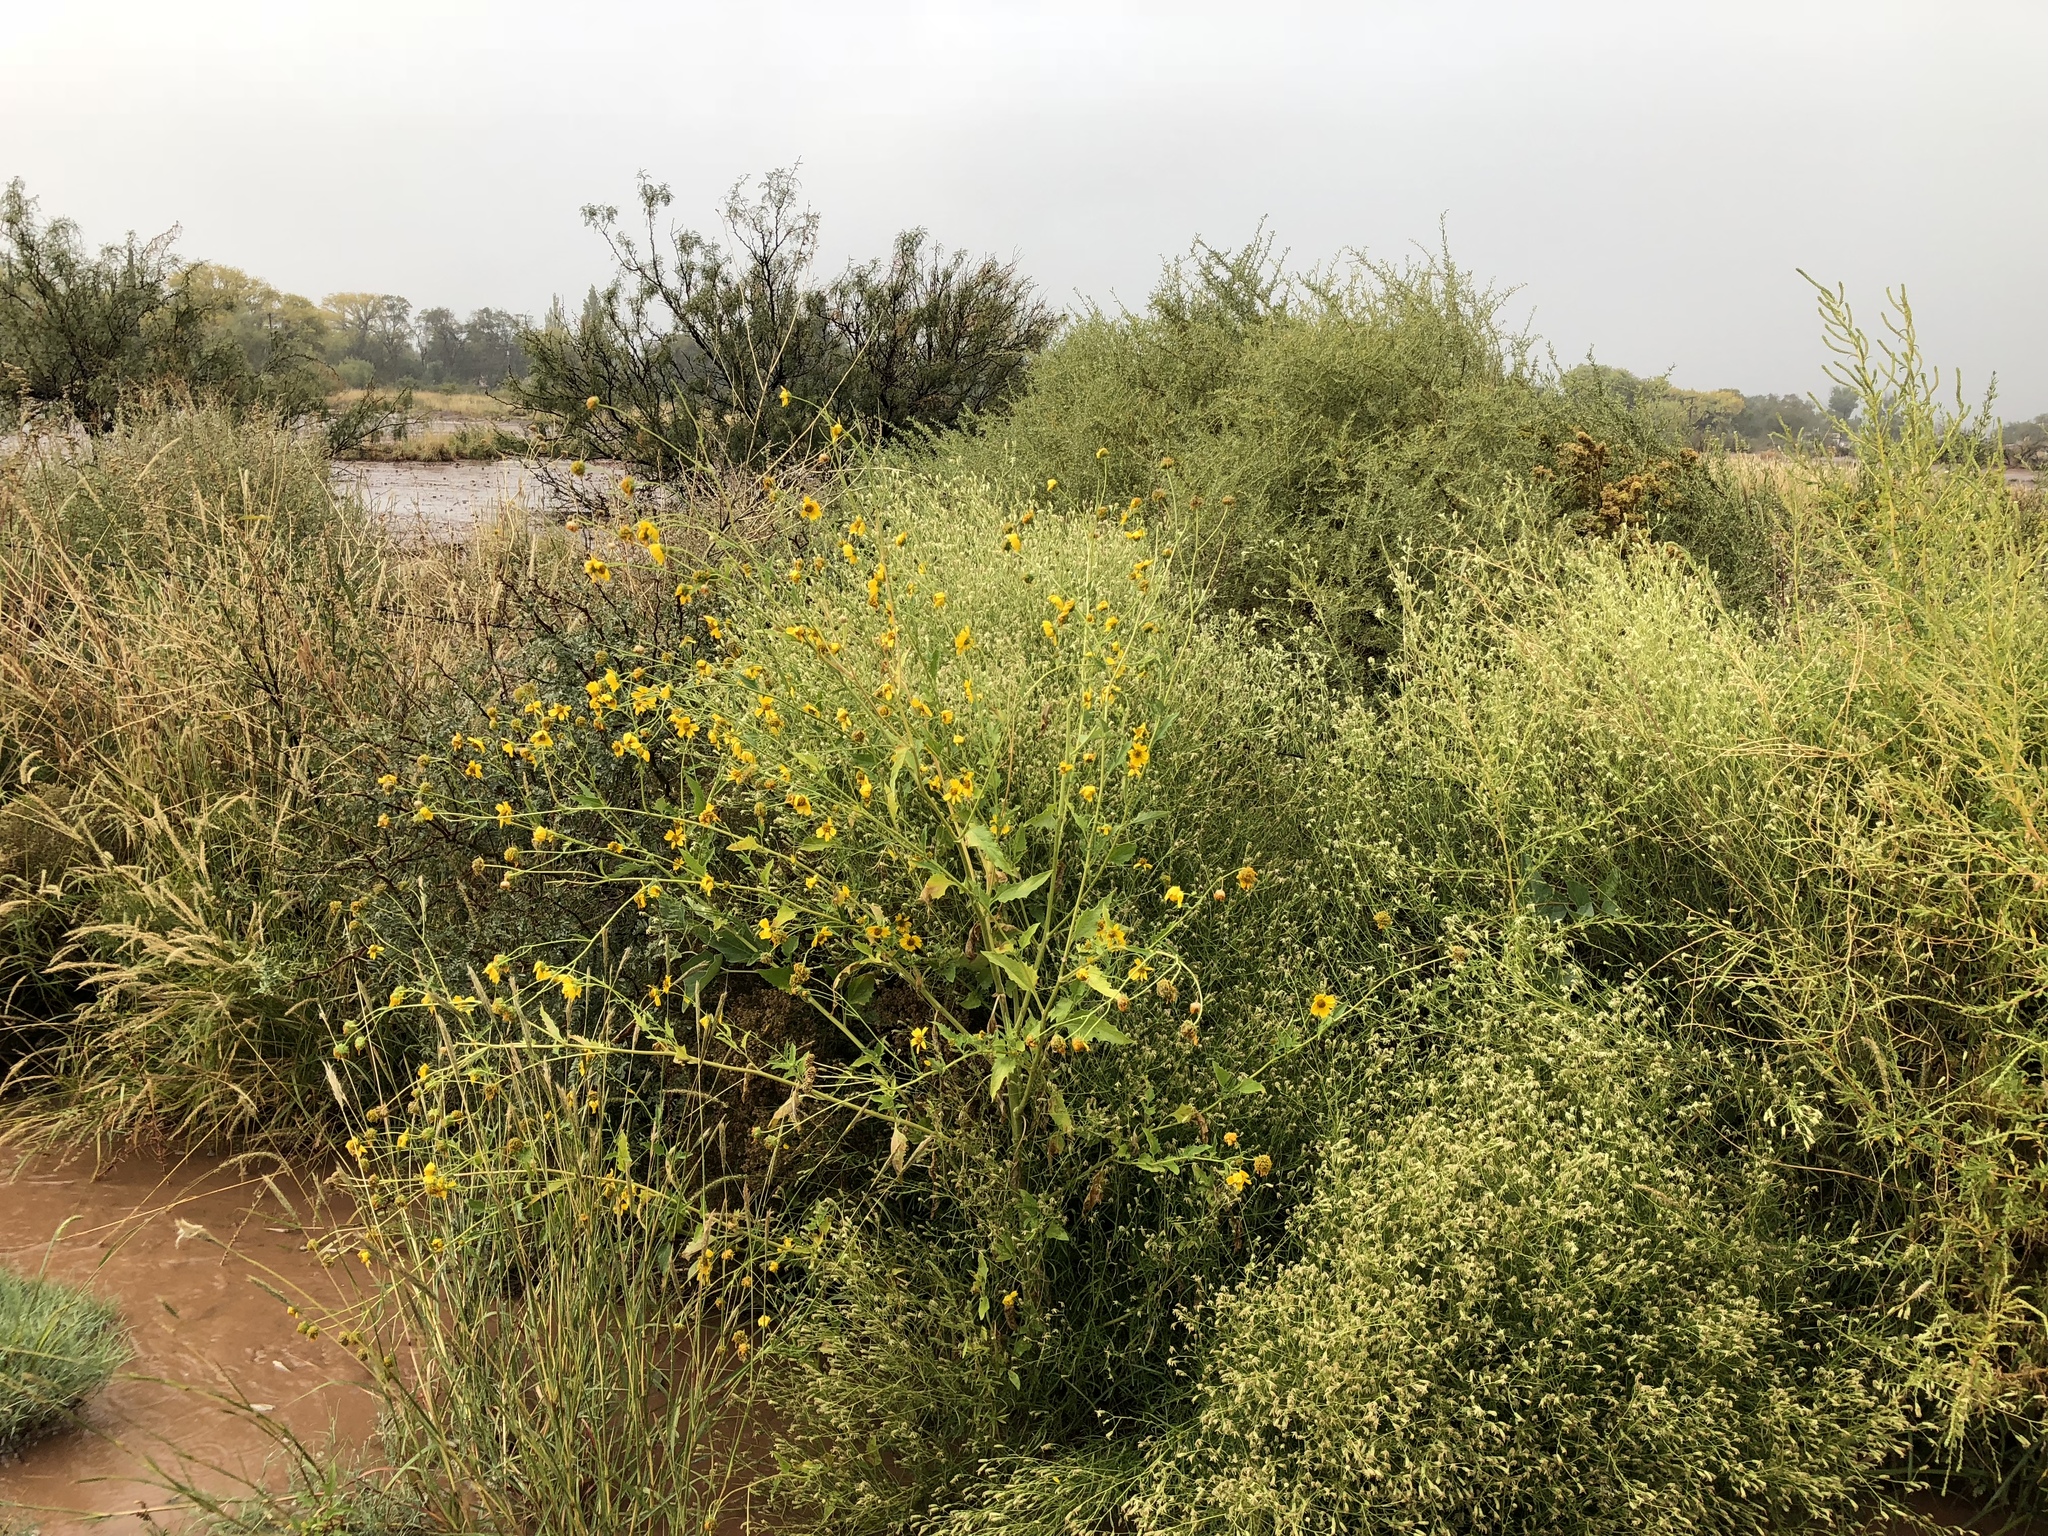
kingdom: Plantae
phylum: Tracheophyta
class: Magnoliopsida
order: Asterales
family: Asteraceae
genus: Verbesina
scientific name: Verbesina encelioides
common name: Golden crownbeard
